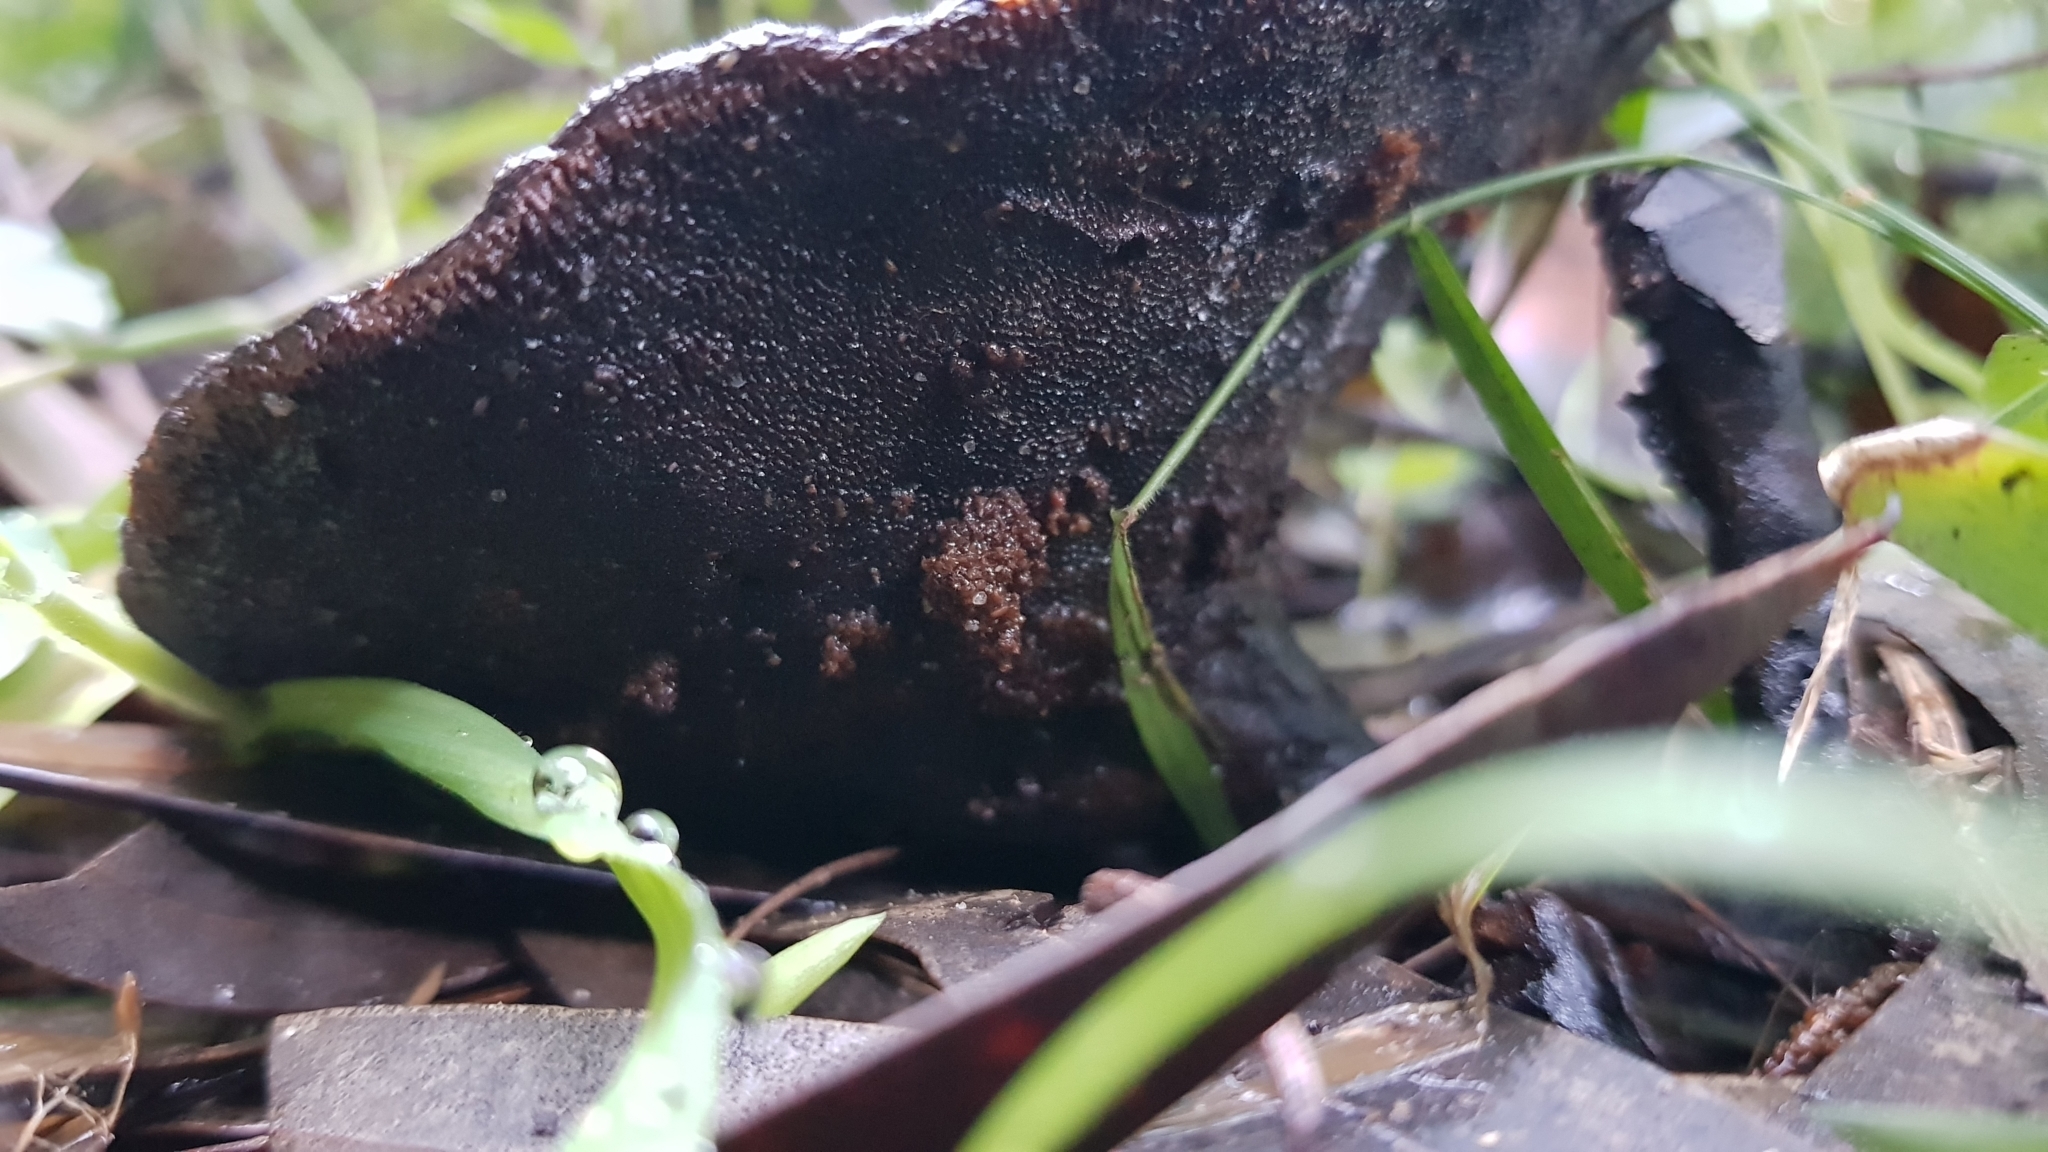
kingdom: Fungi
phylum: Basidiomycota
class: Agaricomycetes
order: Polyporales
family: Ganodermataceae
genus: Sanguinoderma
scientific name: Sanguinoderma rude
